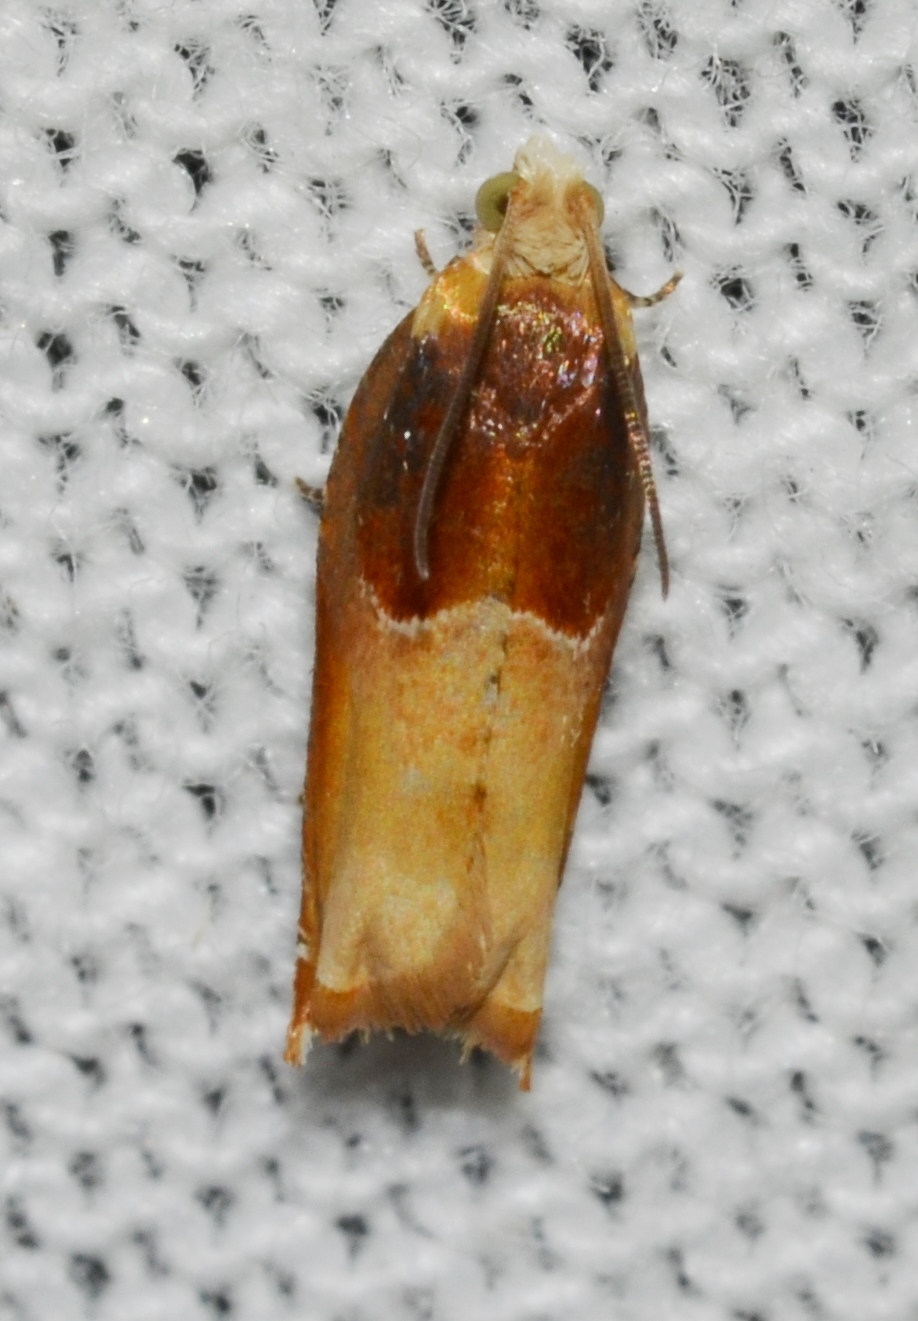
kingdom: Animalia
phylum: Arthropoda
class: Insecta
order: Lepidoptera
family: Tortricidae
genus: Ancylis
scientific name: Ancylis divisana
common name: Two-toned ancylis moth
